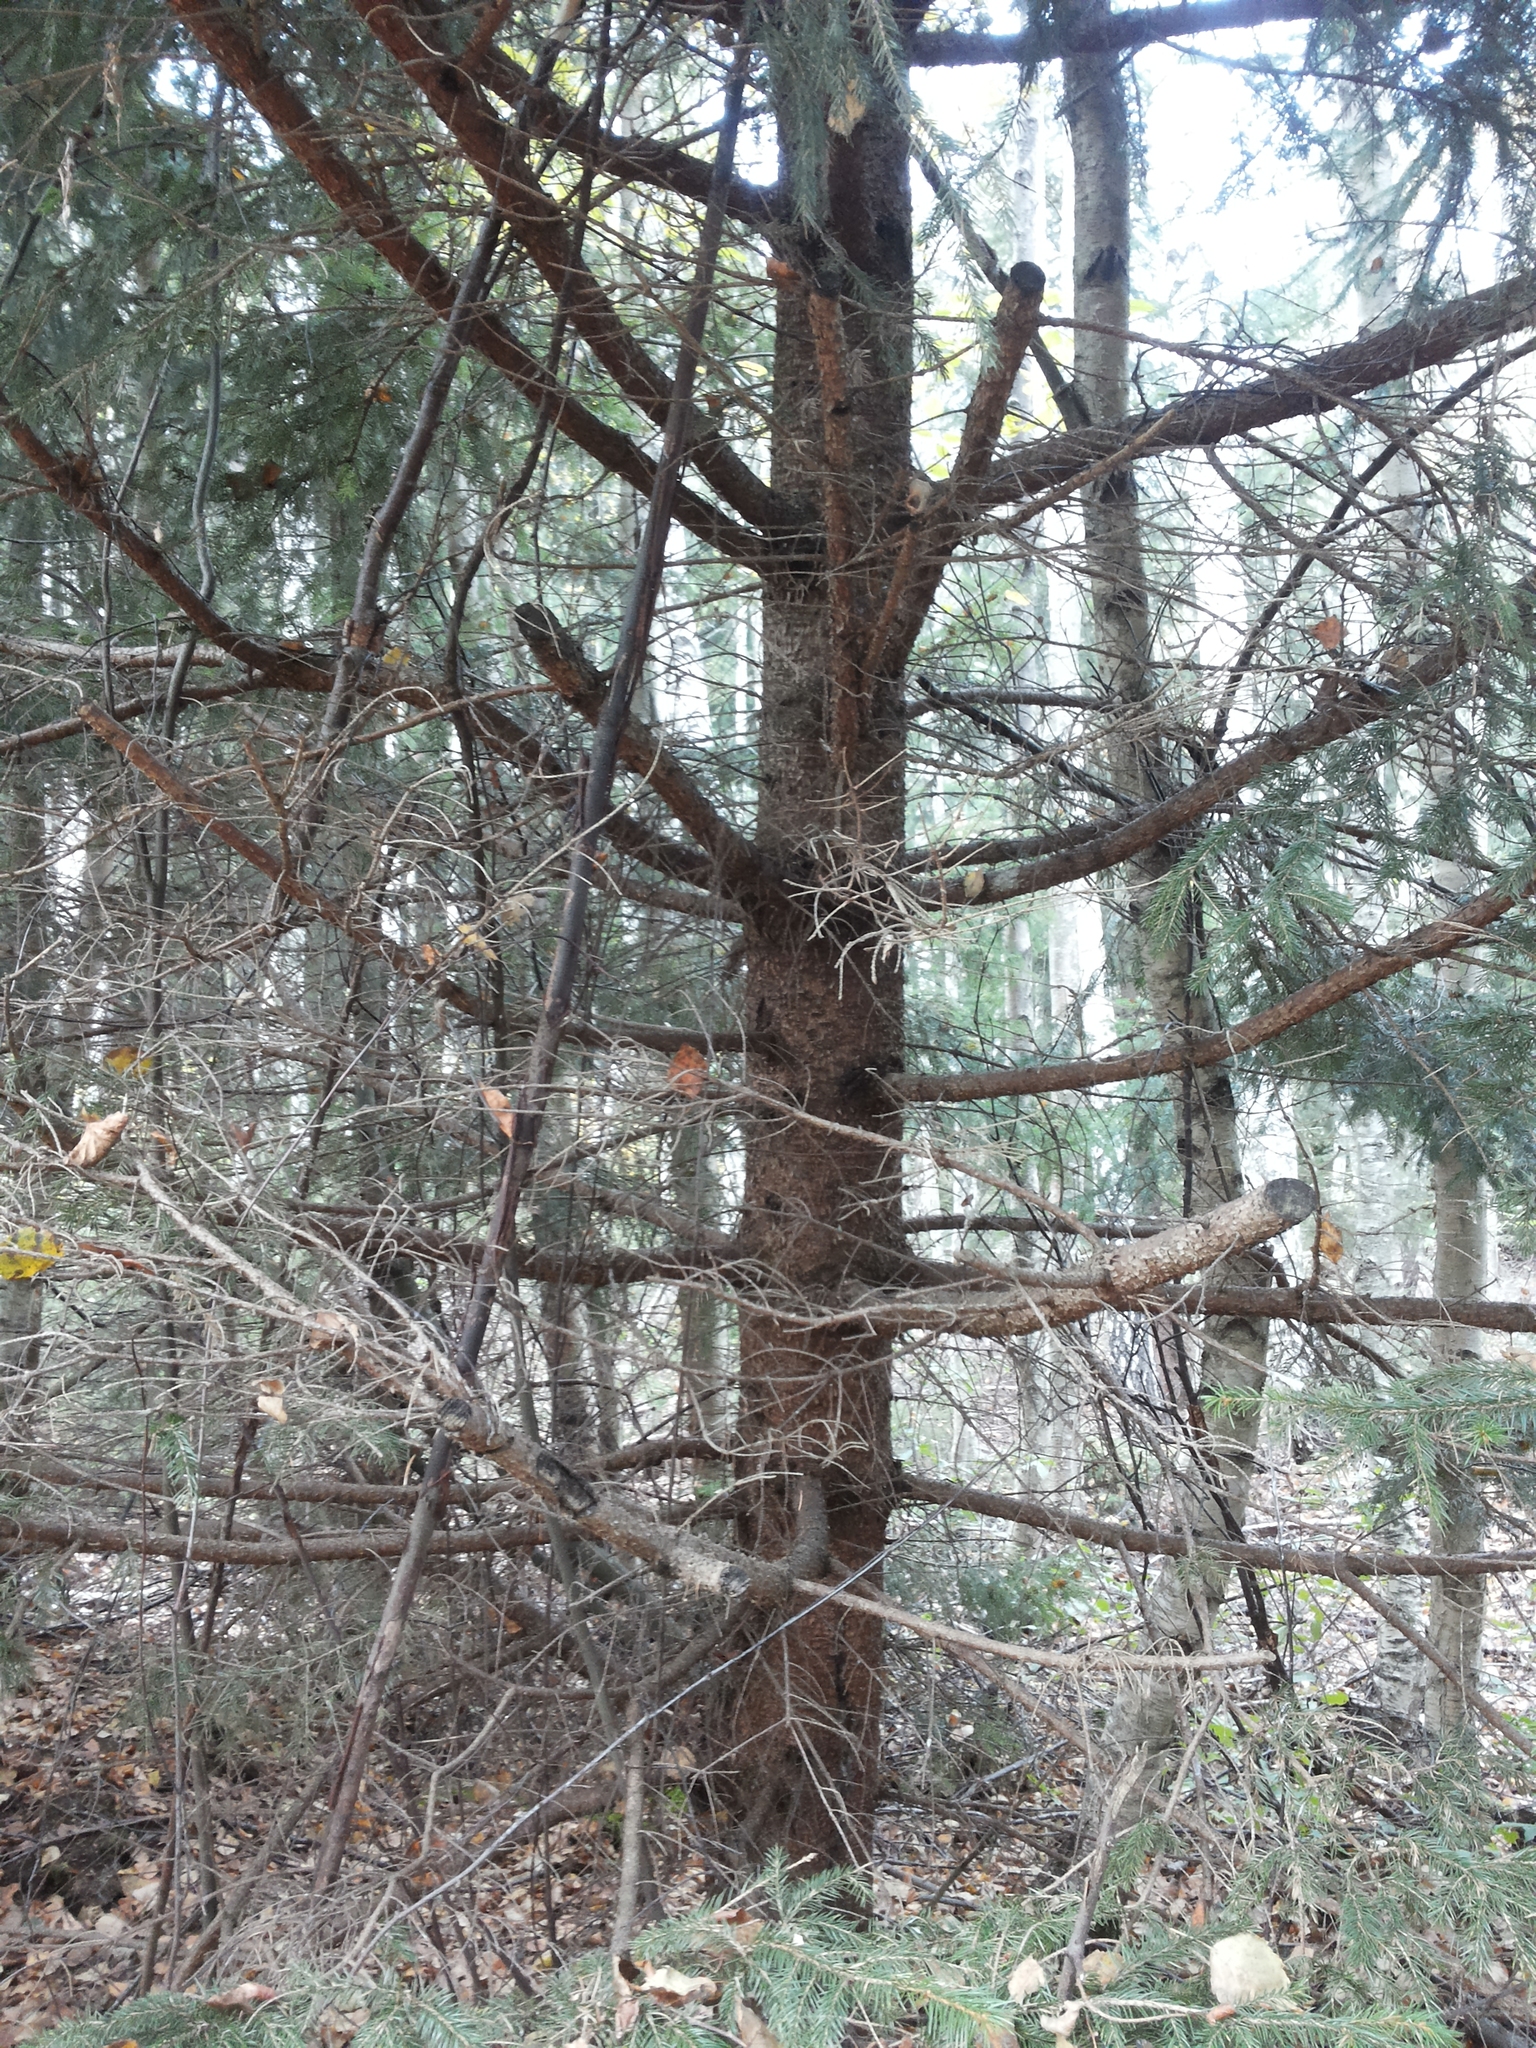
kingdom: Plantae
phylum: Tracheophyta
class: Pinopsida
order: Pinales
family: Pinaceae
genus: Picea
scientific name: Picea abies
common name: Norway spruce
